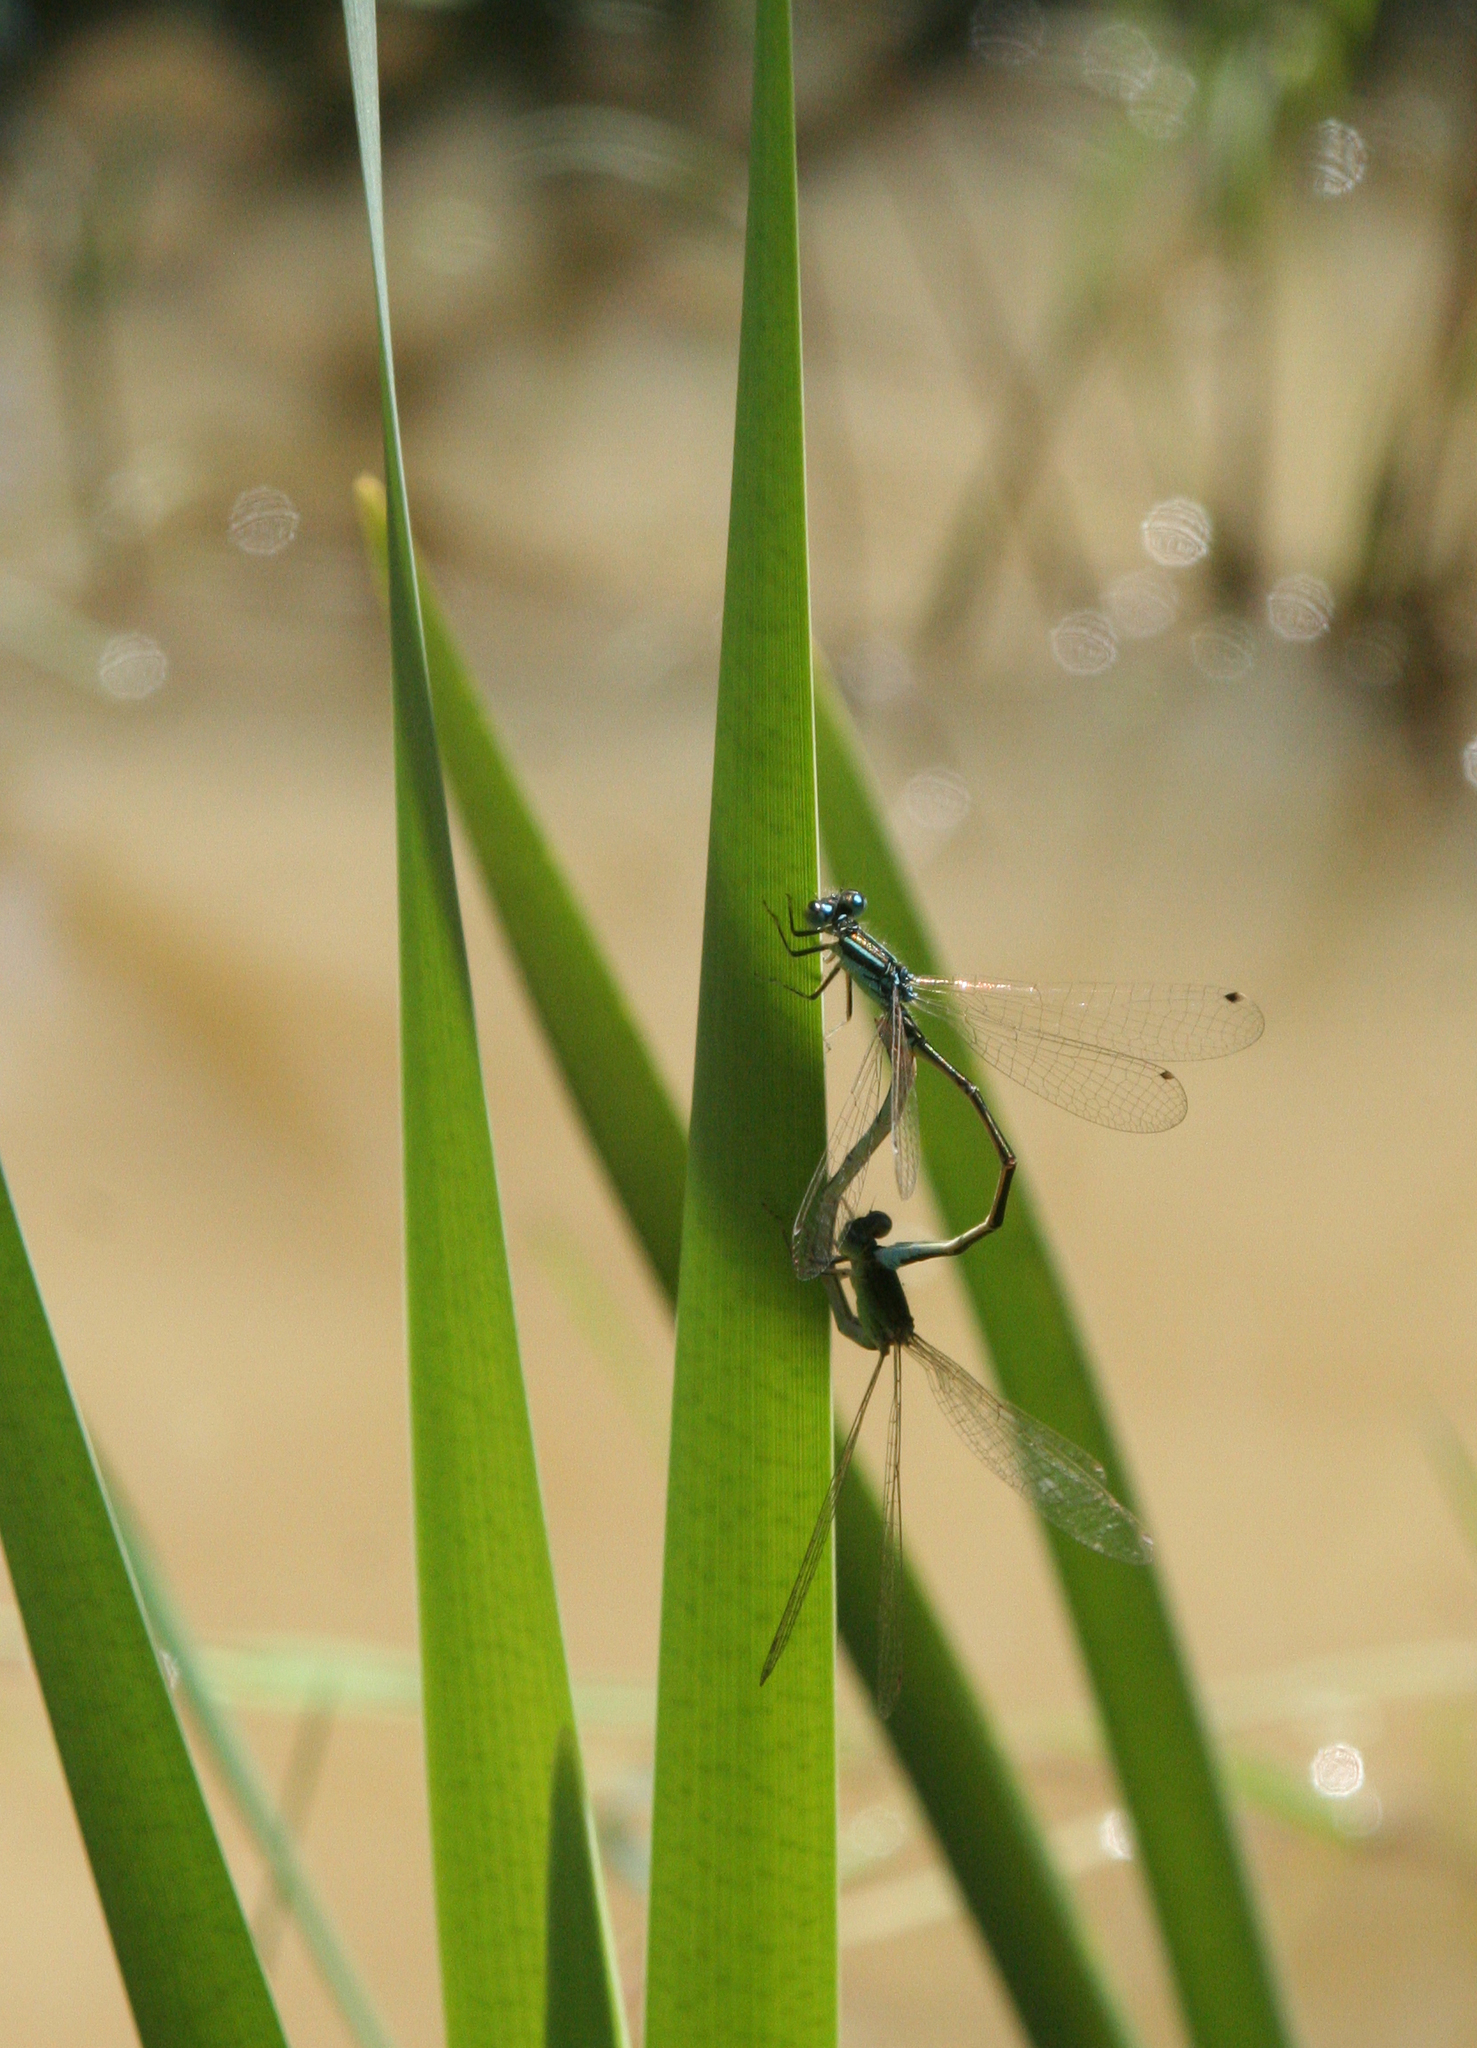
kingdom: Animalia
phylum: Arthropoda
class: Insecta
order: Odonata
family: Coenagrionidae
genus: Ischnura
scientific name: Ischnura pumilio
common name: Scarce blue-tailed damselfly
